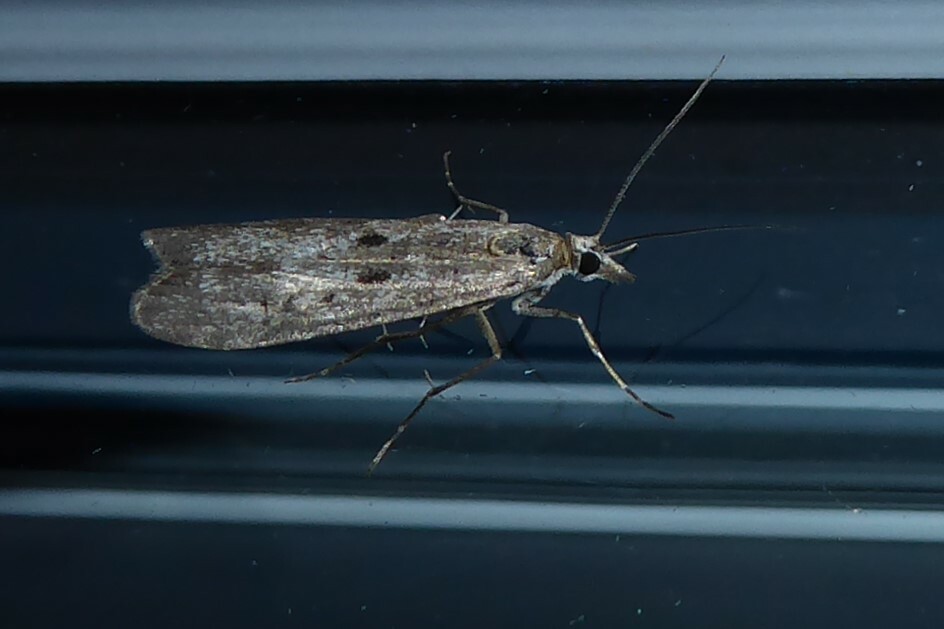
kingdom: Animalia
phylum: Arthropoda
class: Insecta
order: Lepidoptera
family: Crambidae
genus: Eudonia
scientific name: Eudonia leptalea
